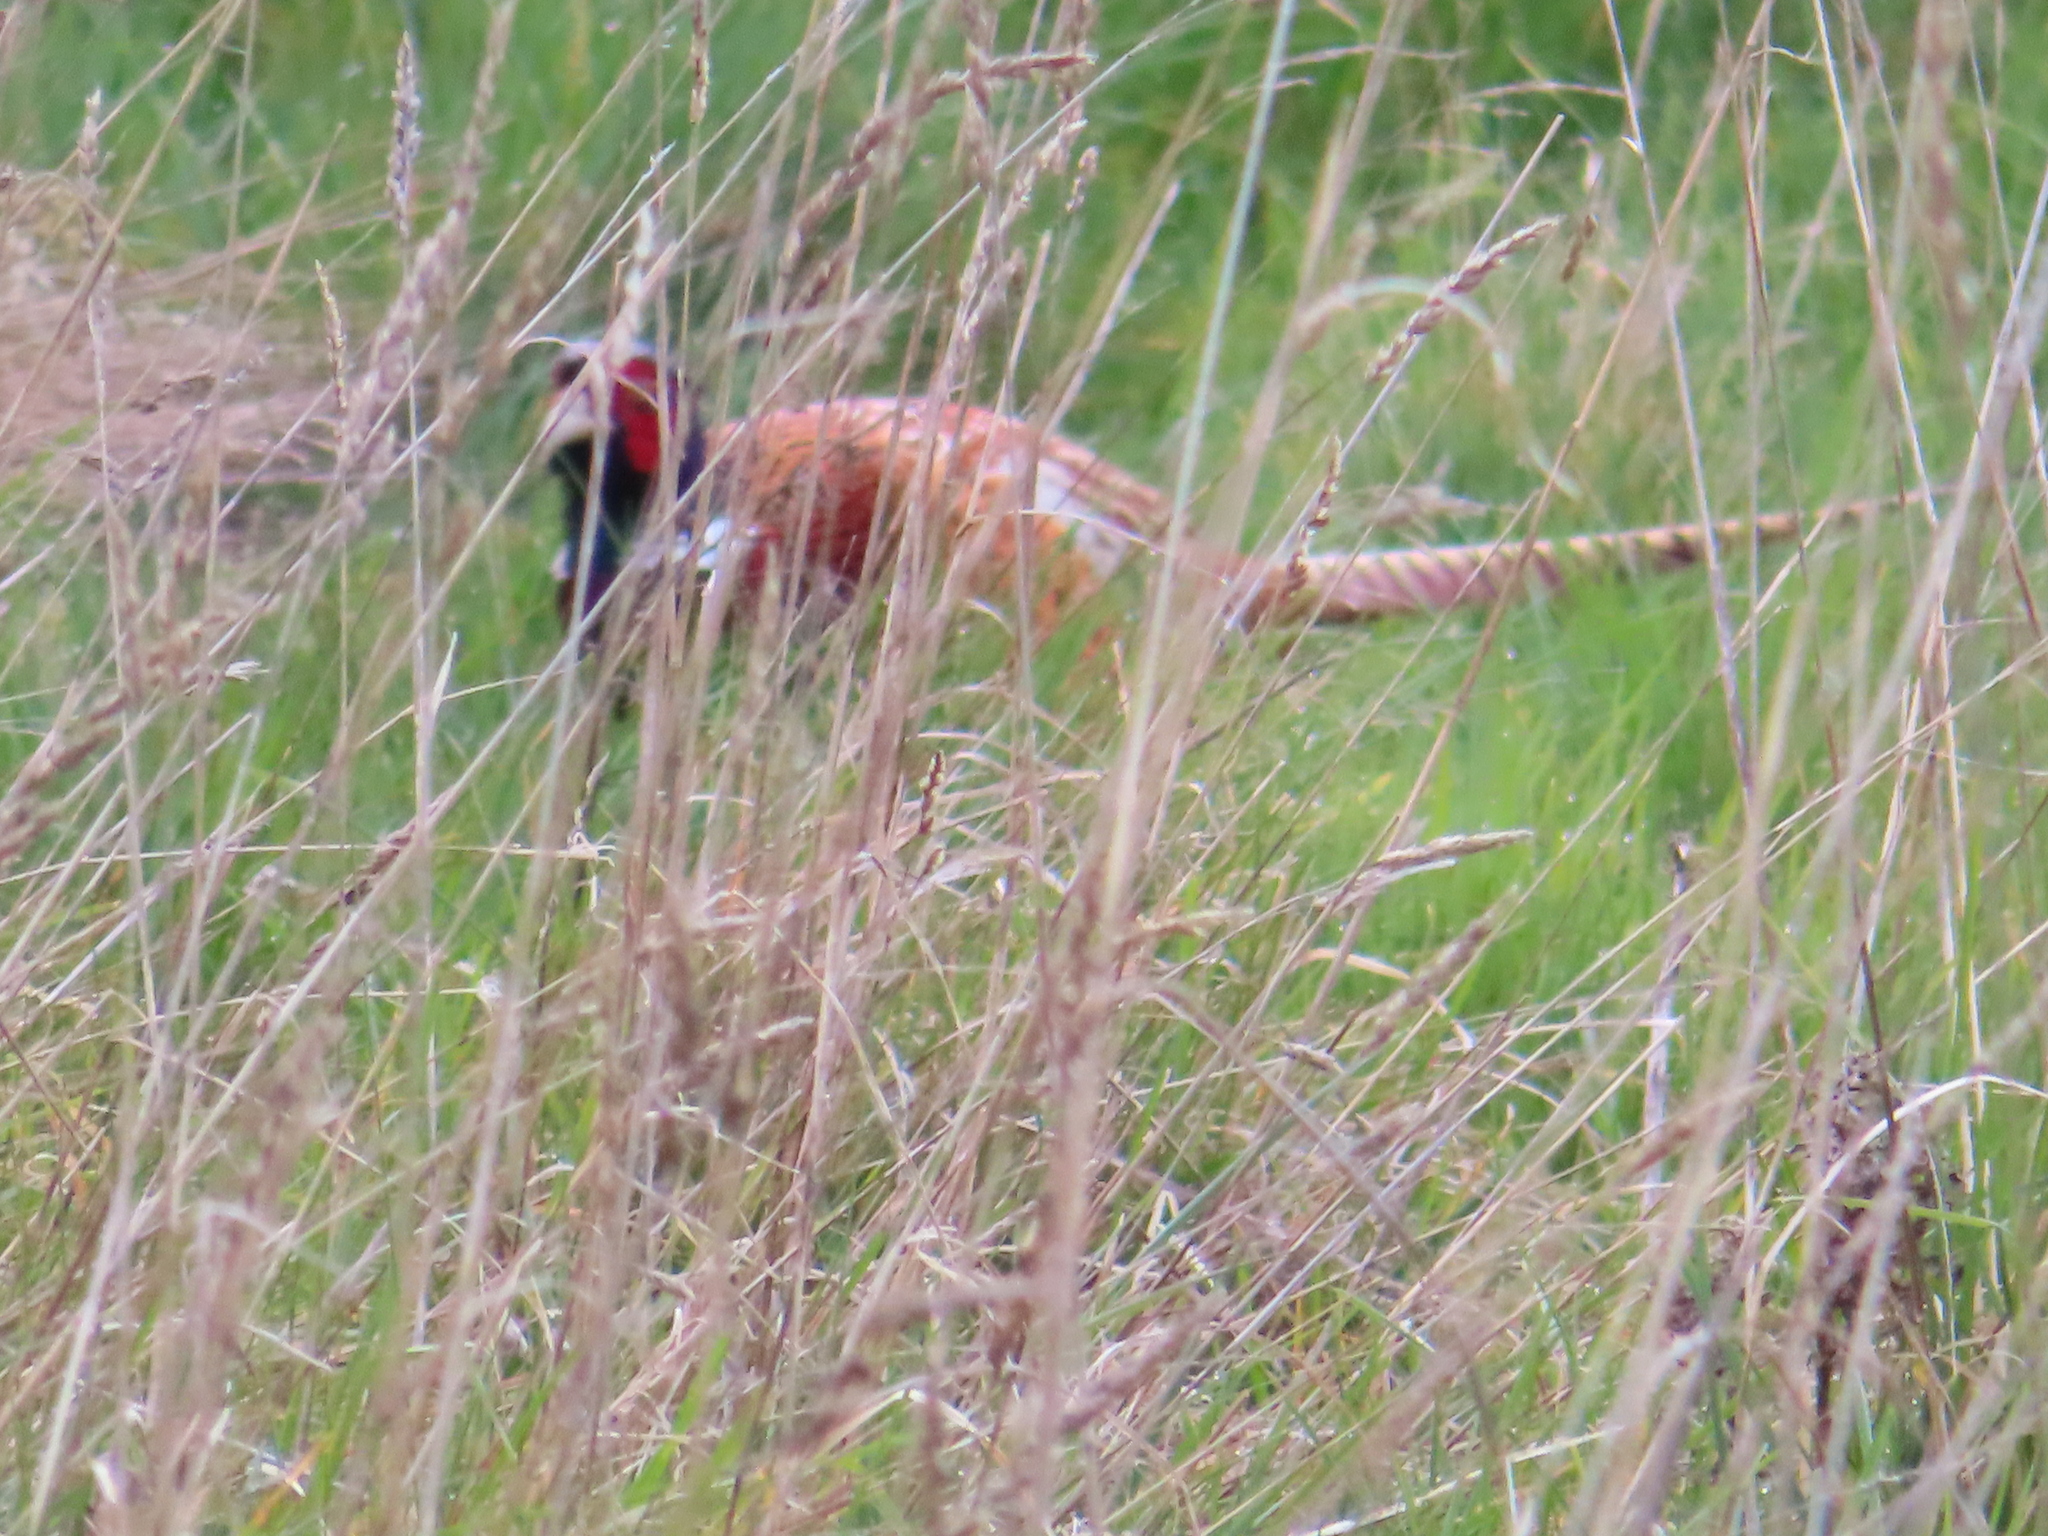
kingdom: Animalia
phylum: Chordata
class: Aves
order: Galliformes
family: Phasianidae
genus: Phasianus
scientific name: Phasianus colchicus
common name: Common pheasant
